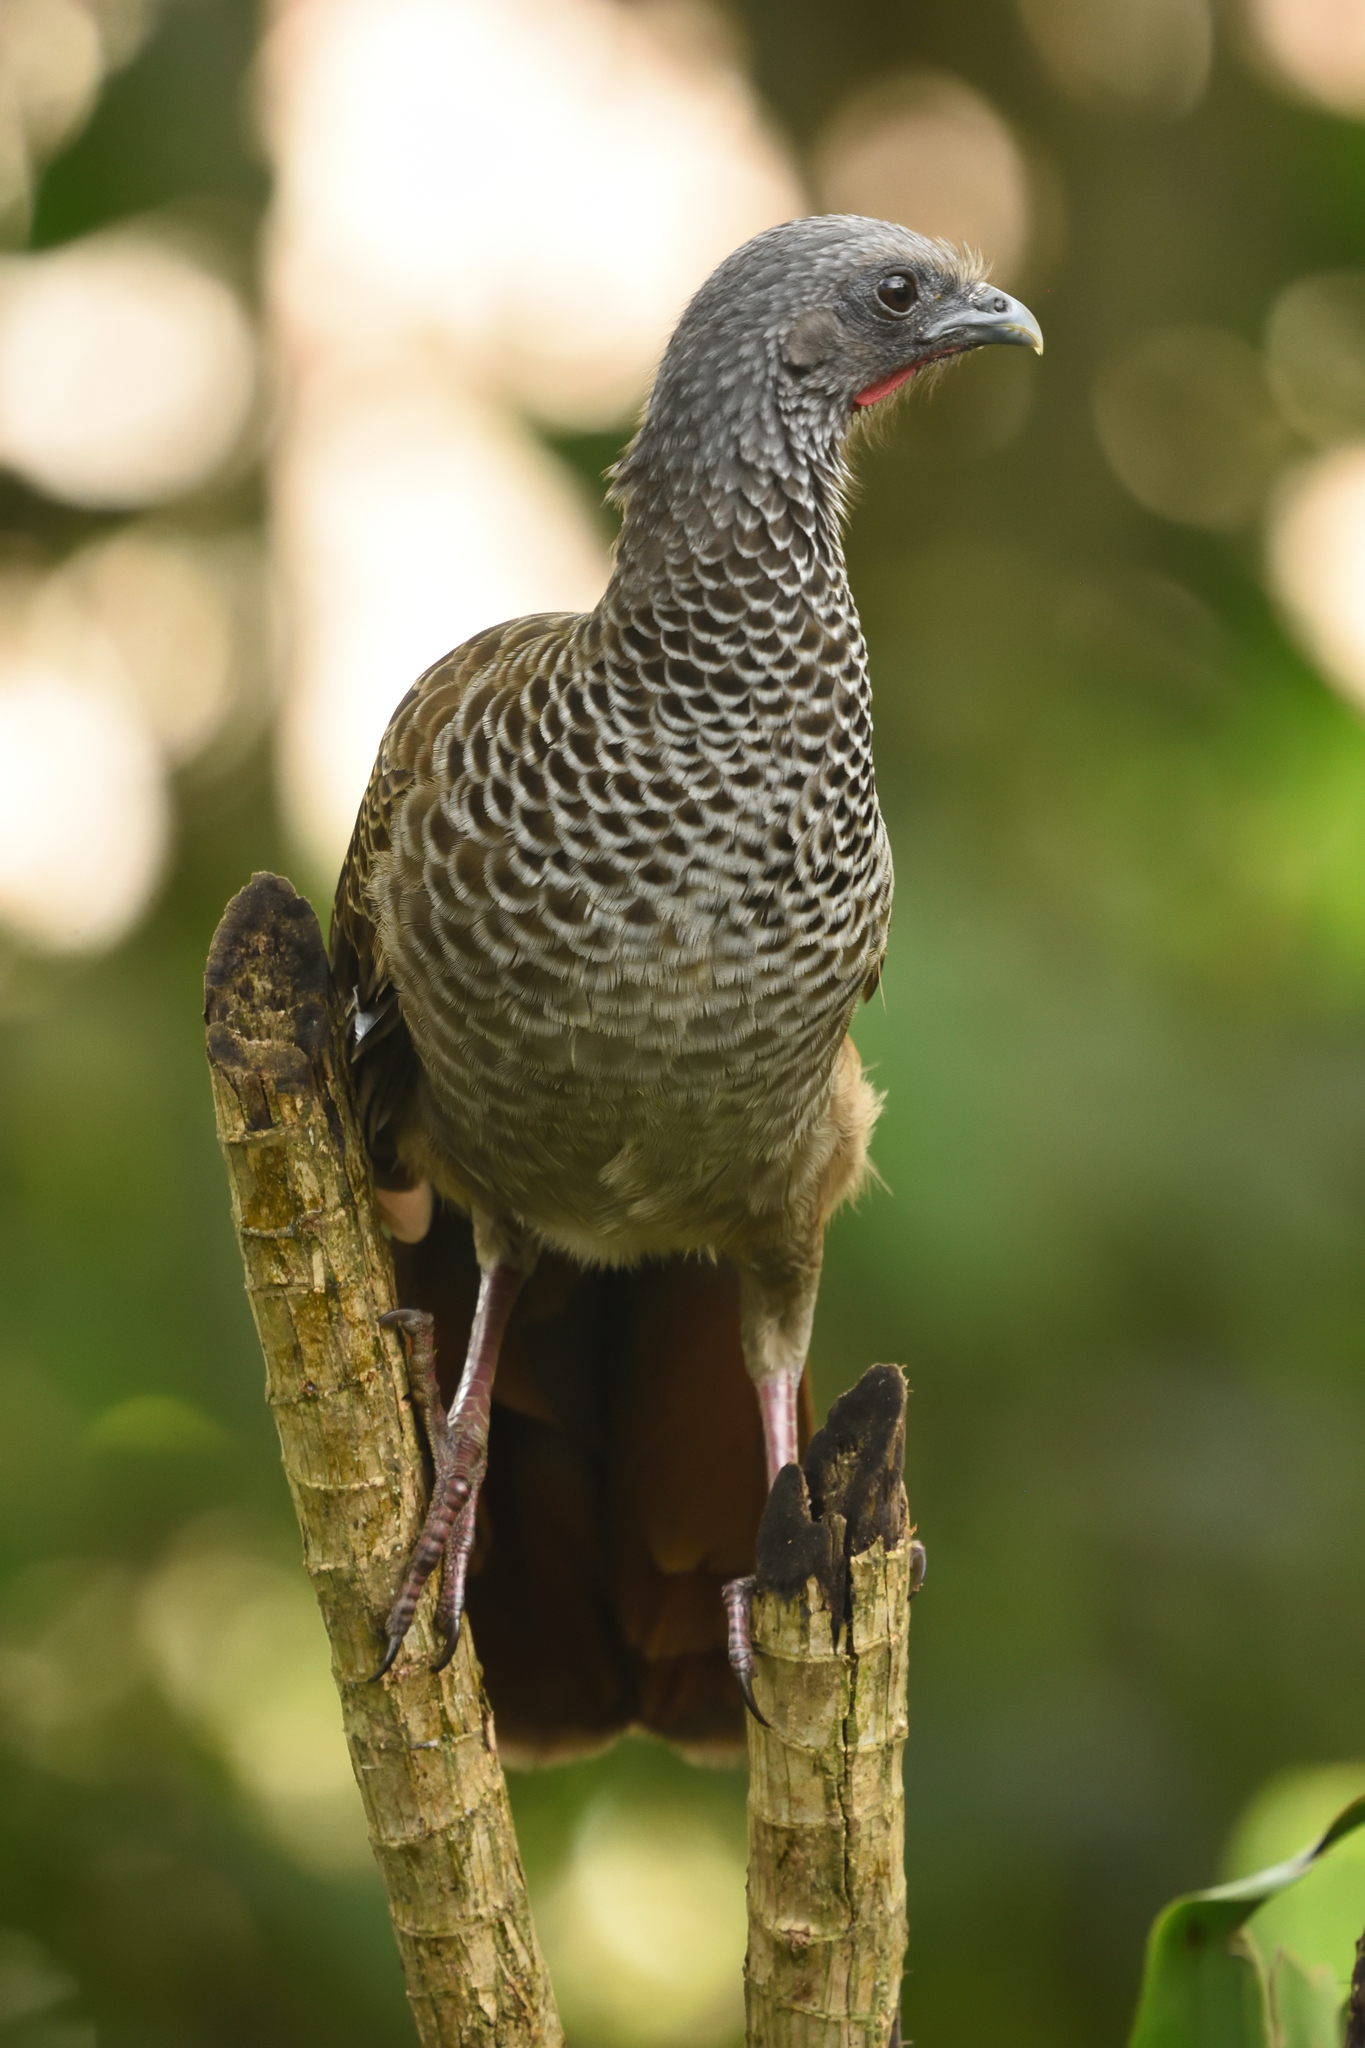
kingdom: Animalia
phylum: Chordata
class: Aves
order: Galliformes
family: Cracidae
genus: Ortalis
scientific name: Ortalis columbiana
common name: Colombian chachalaca
